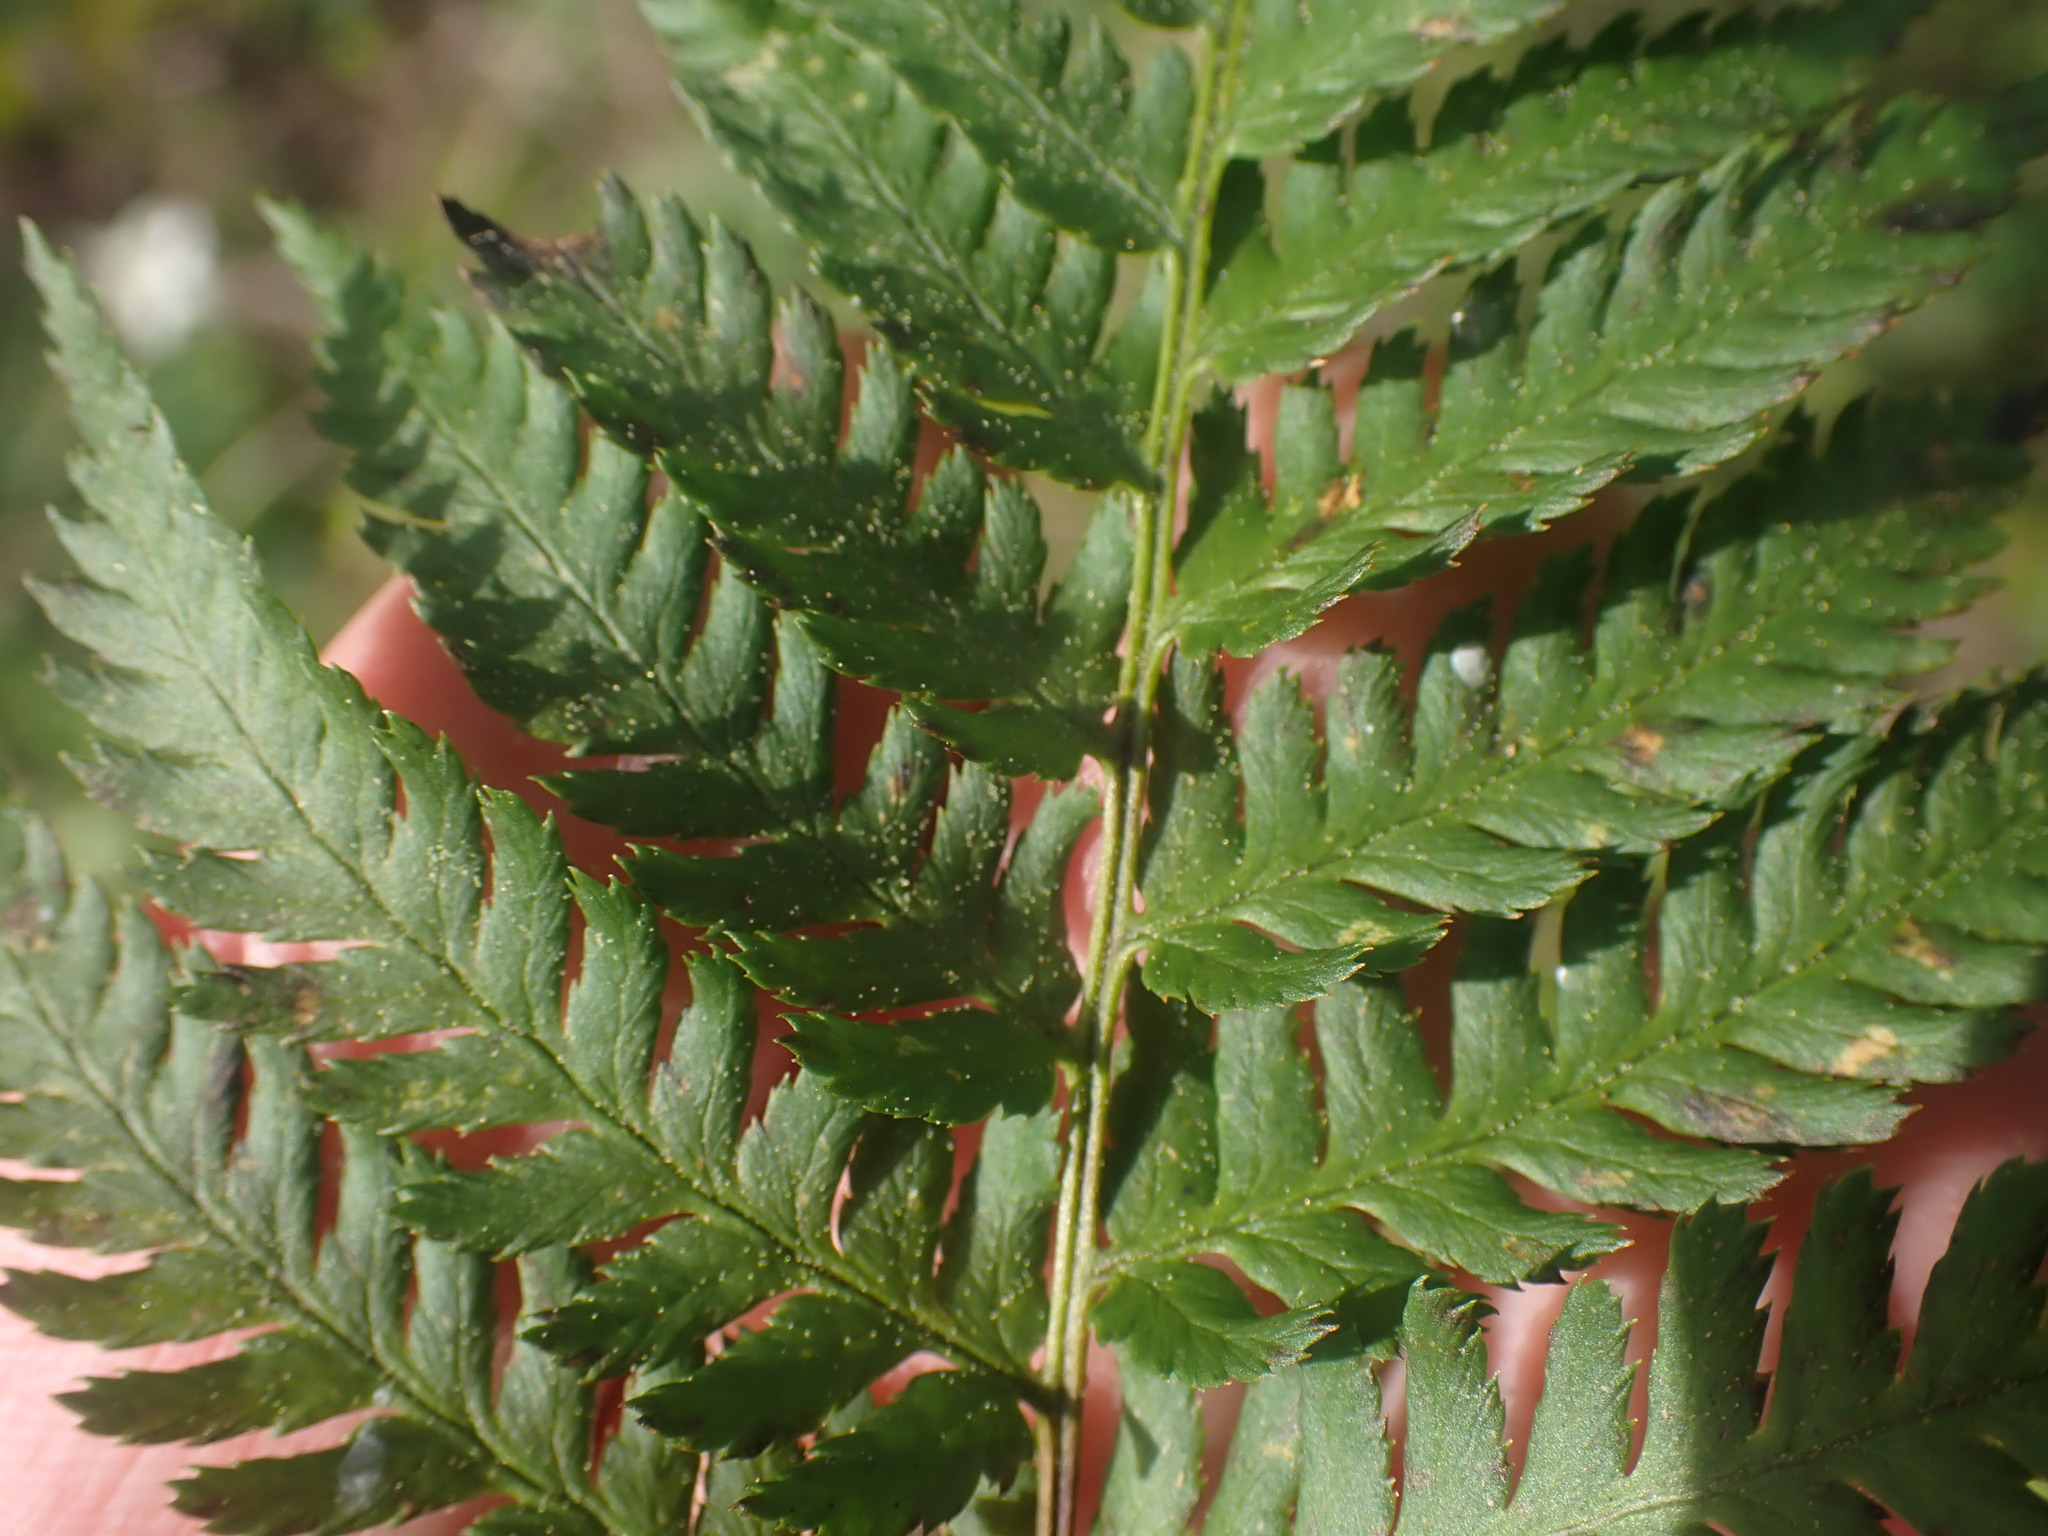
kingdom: Plantae
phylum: Tracheophyta
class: Polypodiopsida
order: Polypodiales
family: Dryopteridaceae
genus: Dryopteris
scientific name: Dryopteris arguta
